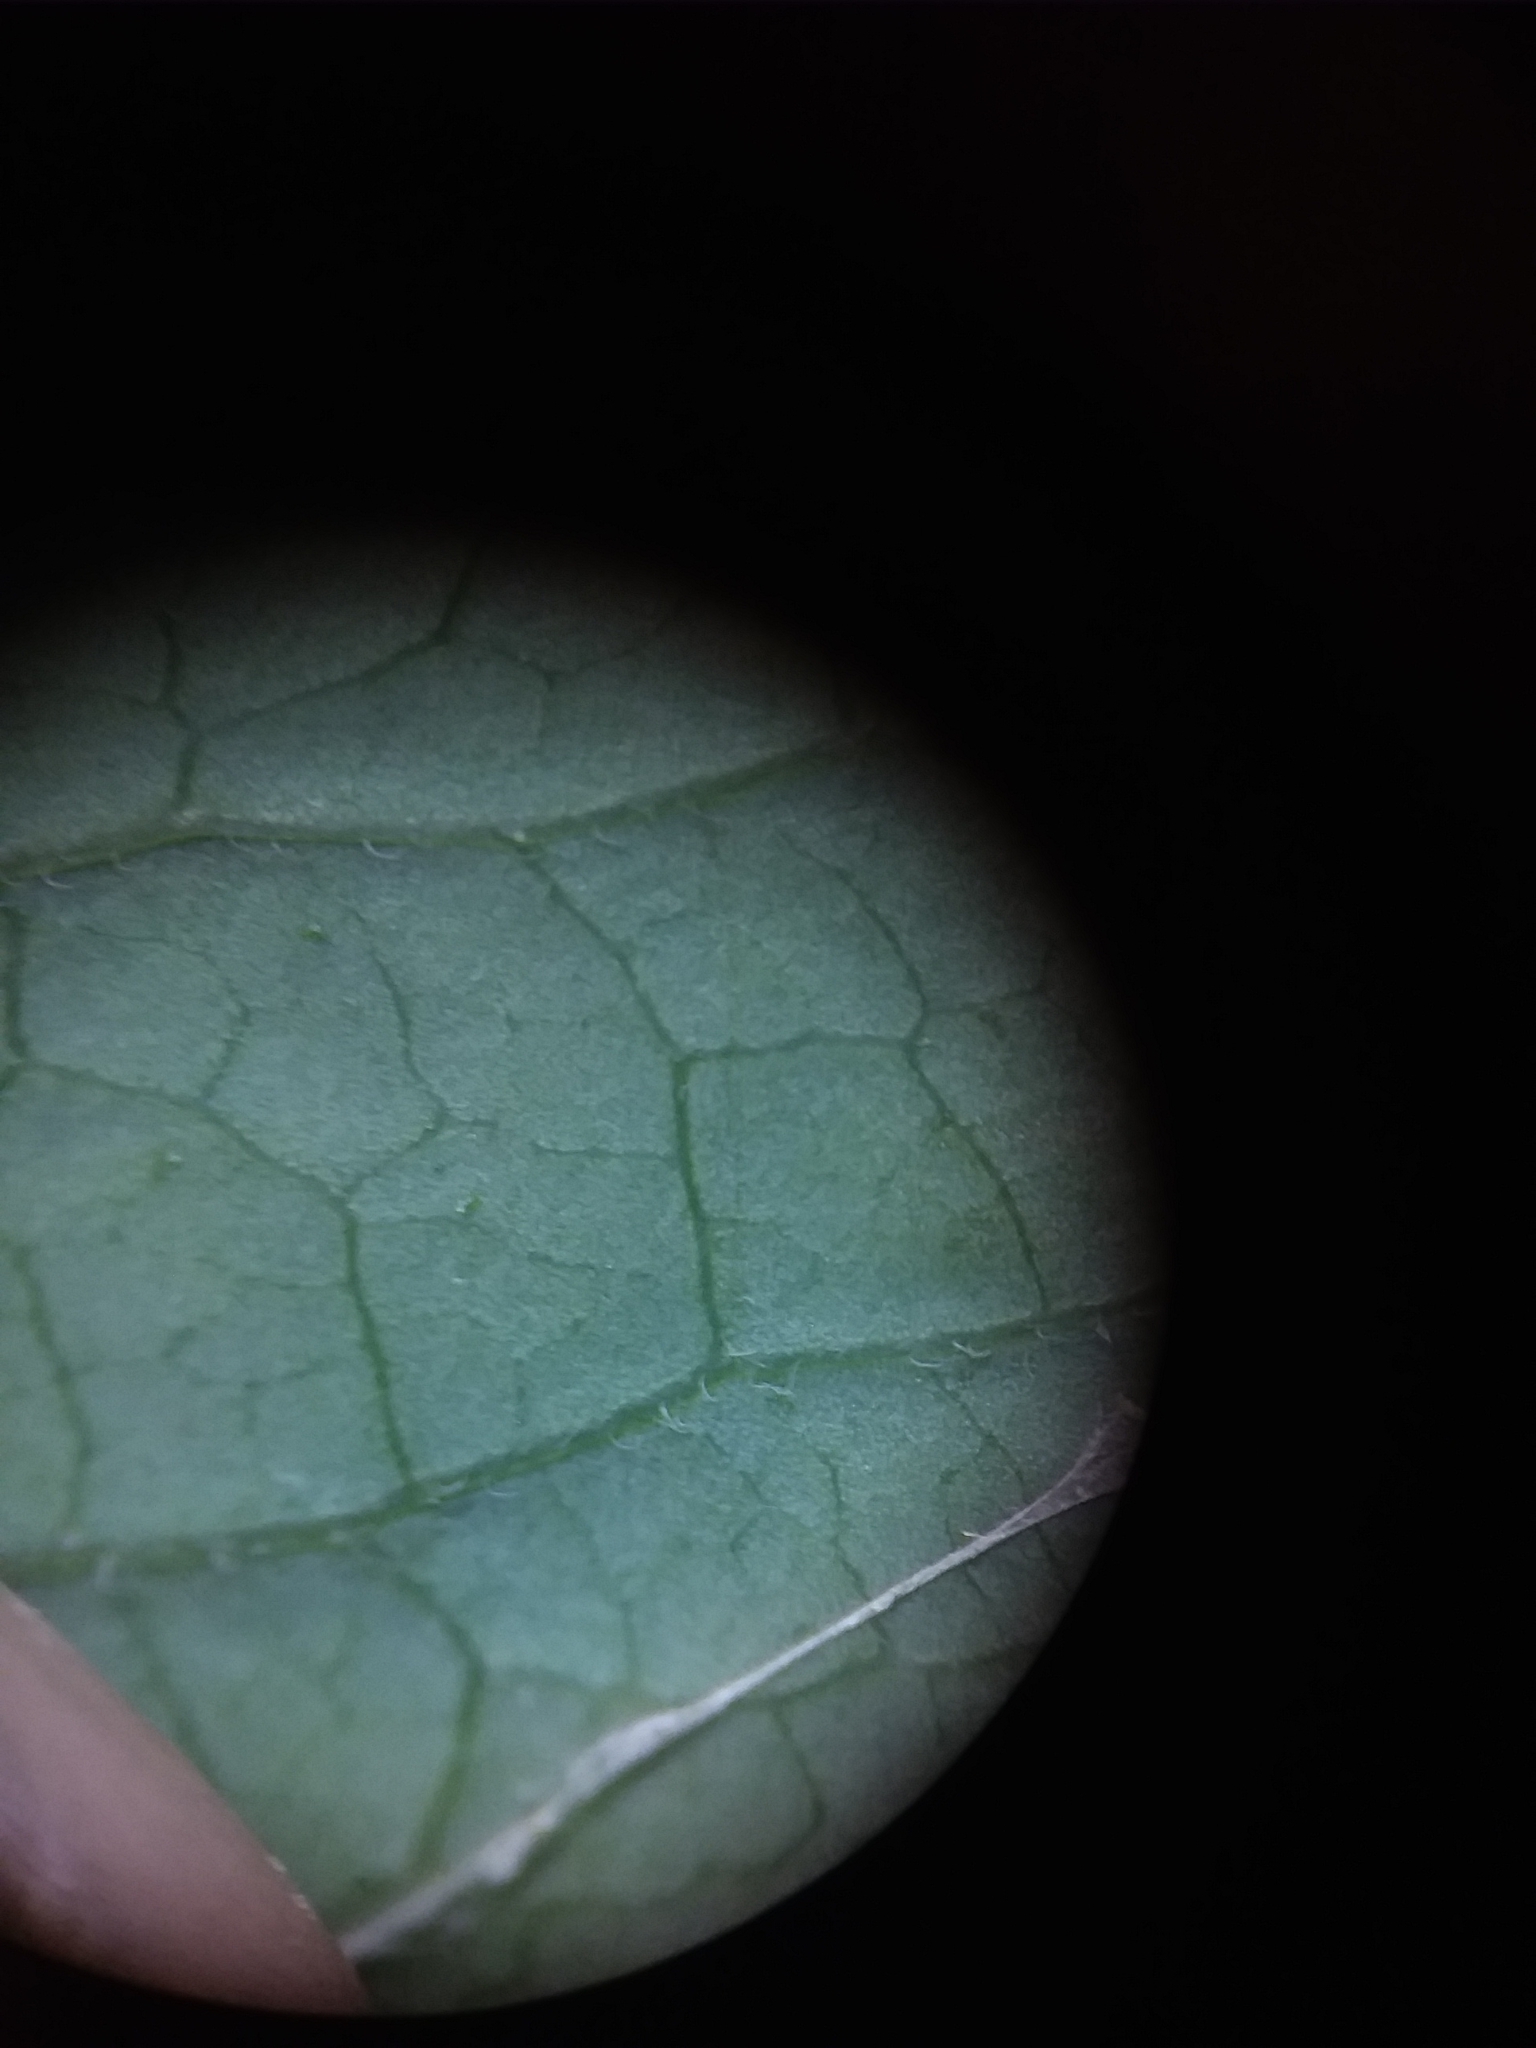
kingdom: Plantae
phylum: Tracheophyta
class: Magnoliopsida
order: Ericales
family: Ericaceae
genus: Vaccinium
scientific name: Vaccinium
